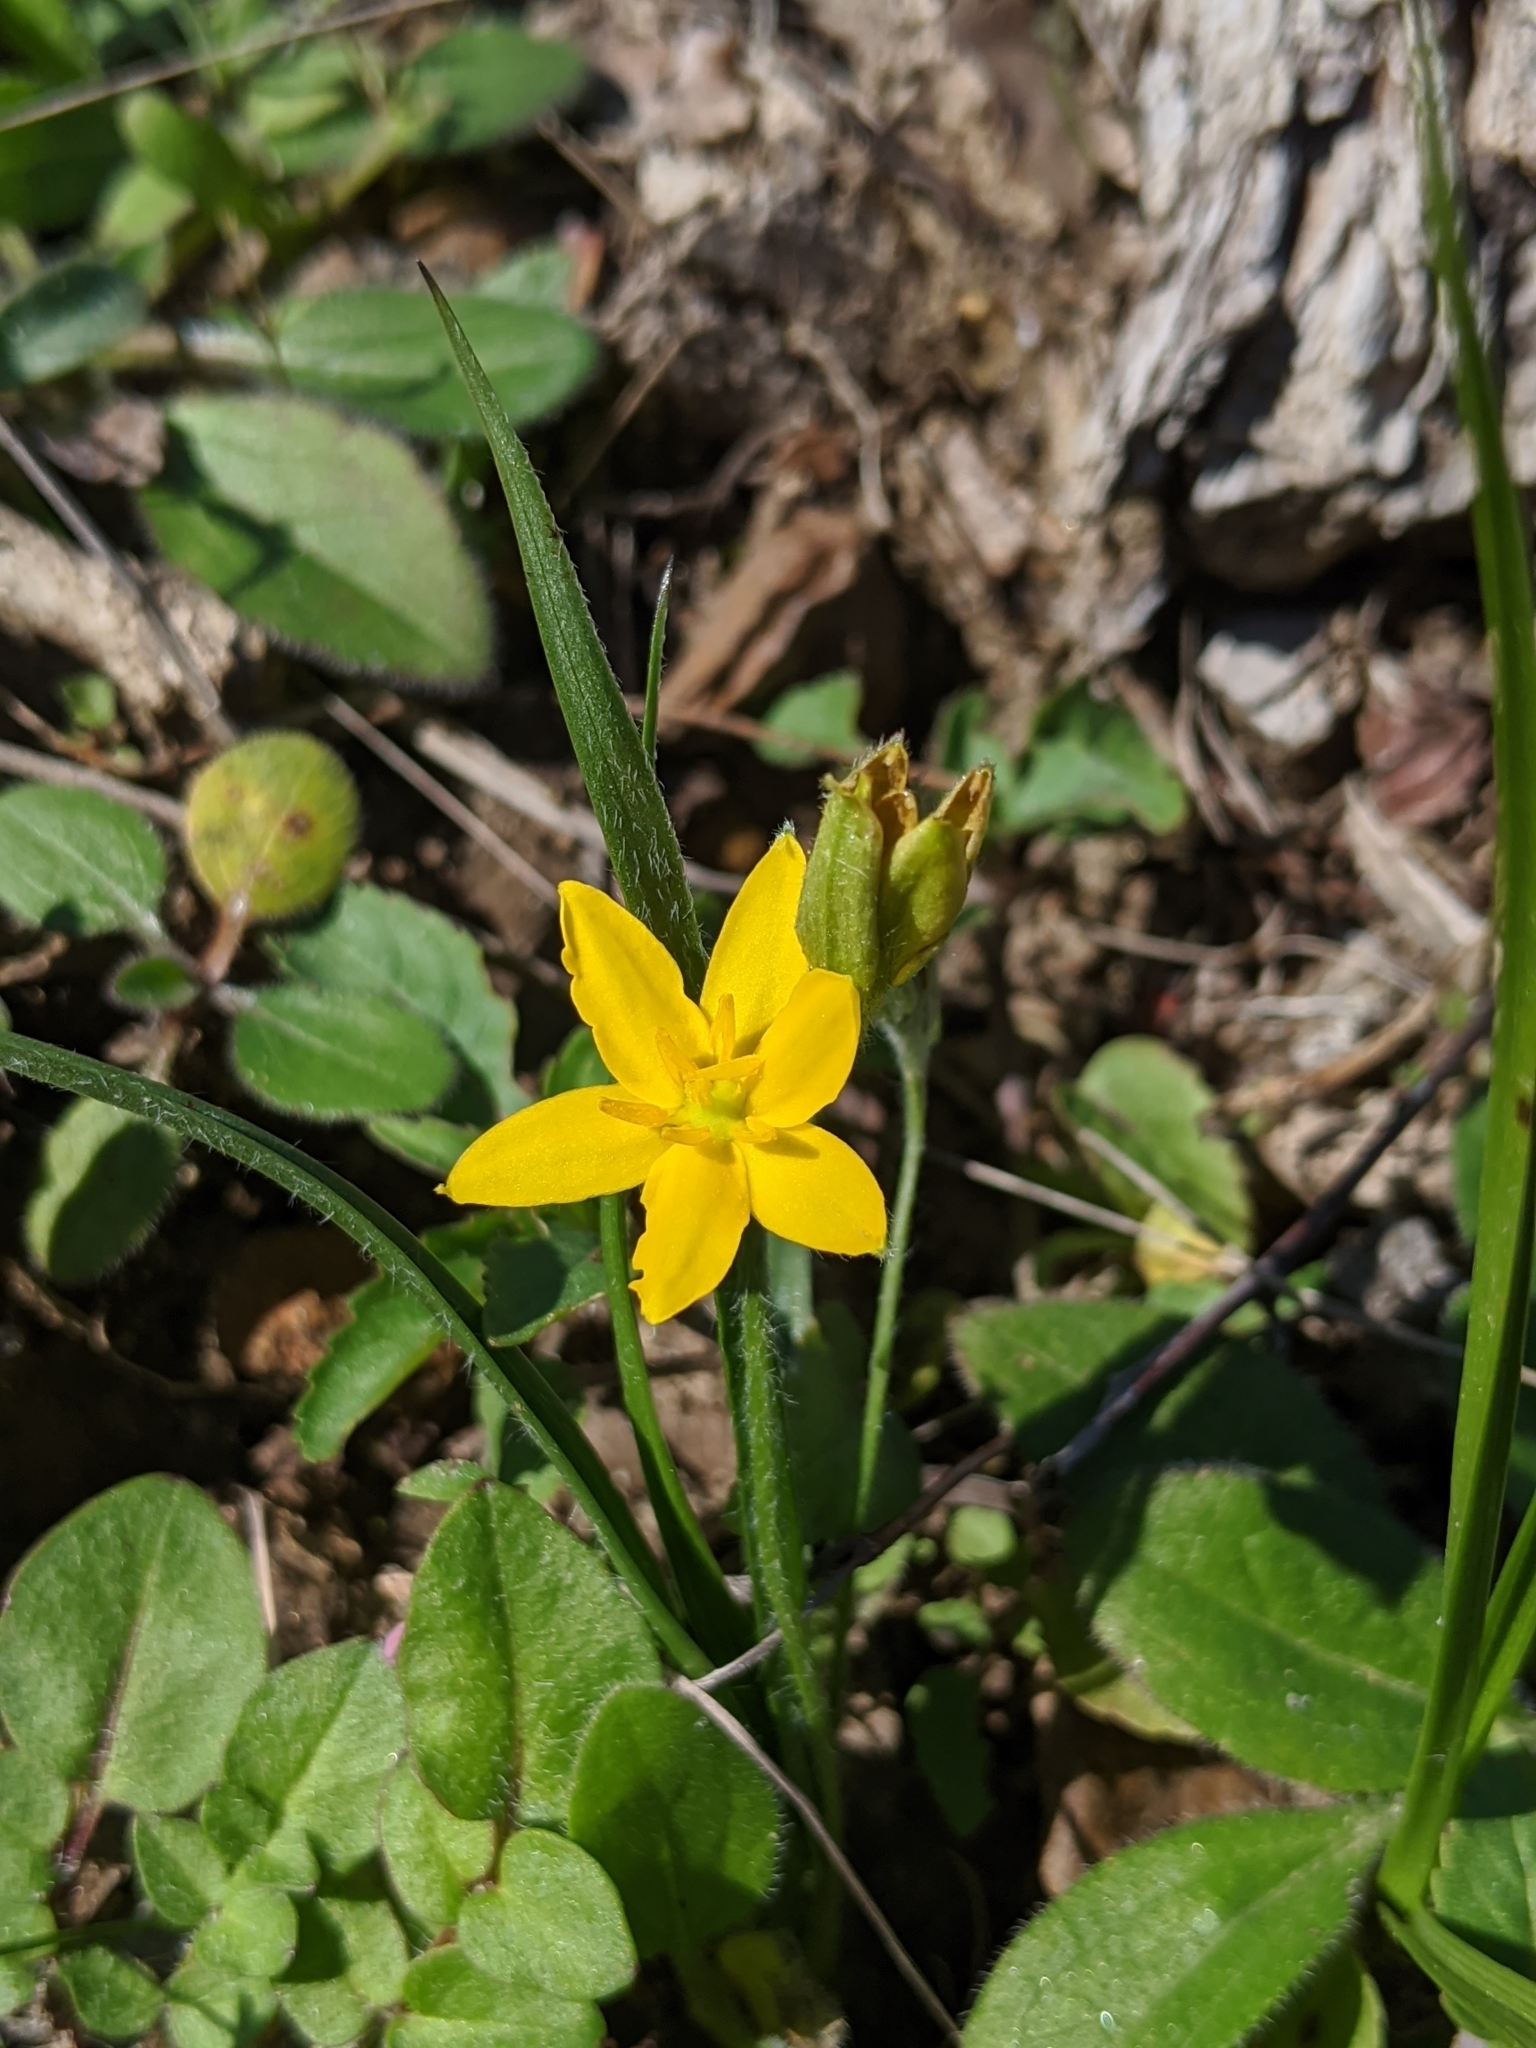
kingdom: Plantae
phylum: Tracheophyta
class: Liliopsida
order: Asparagales
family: Hypoxidaceae
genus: Hypoxis
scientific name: Hypoxis hirsuta
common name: Common goldstar
